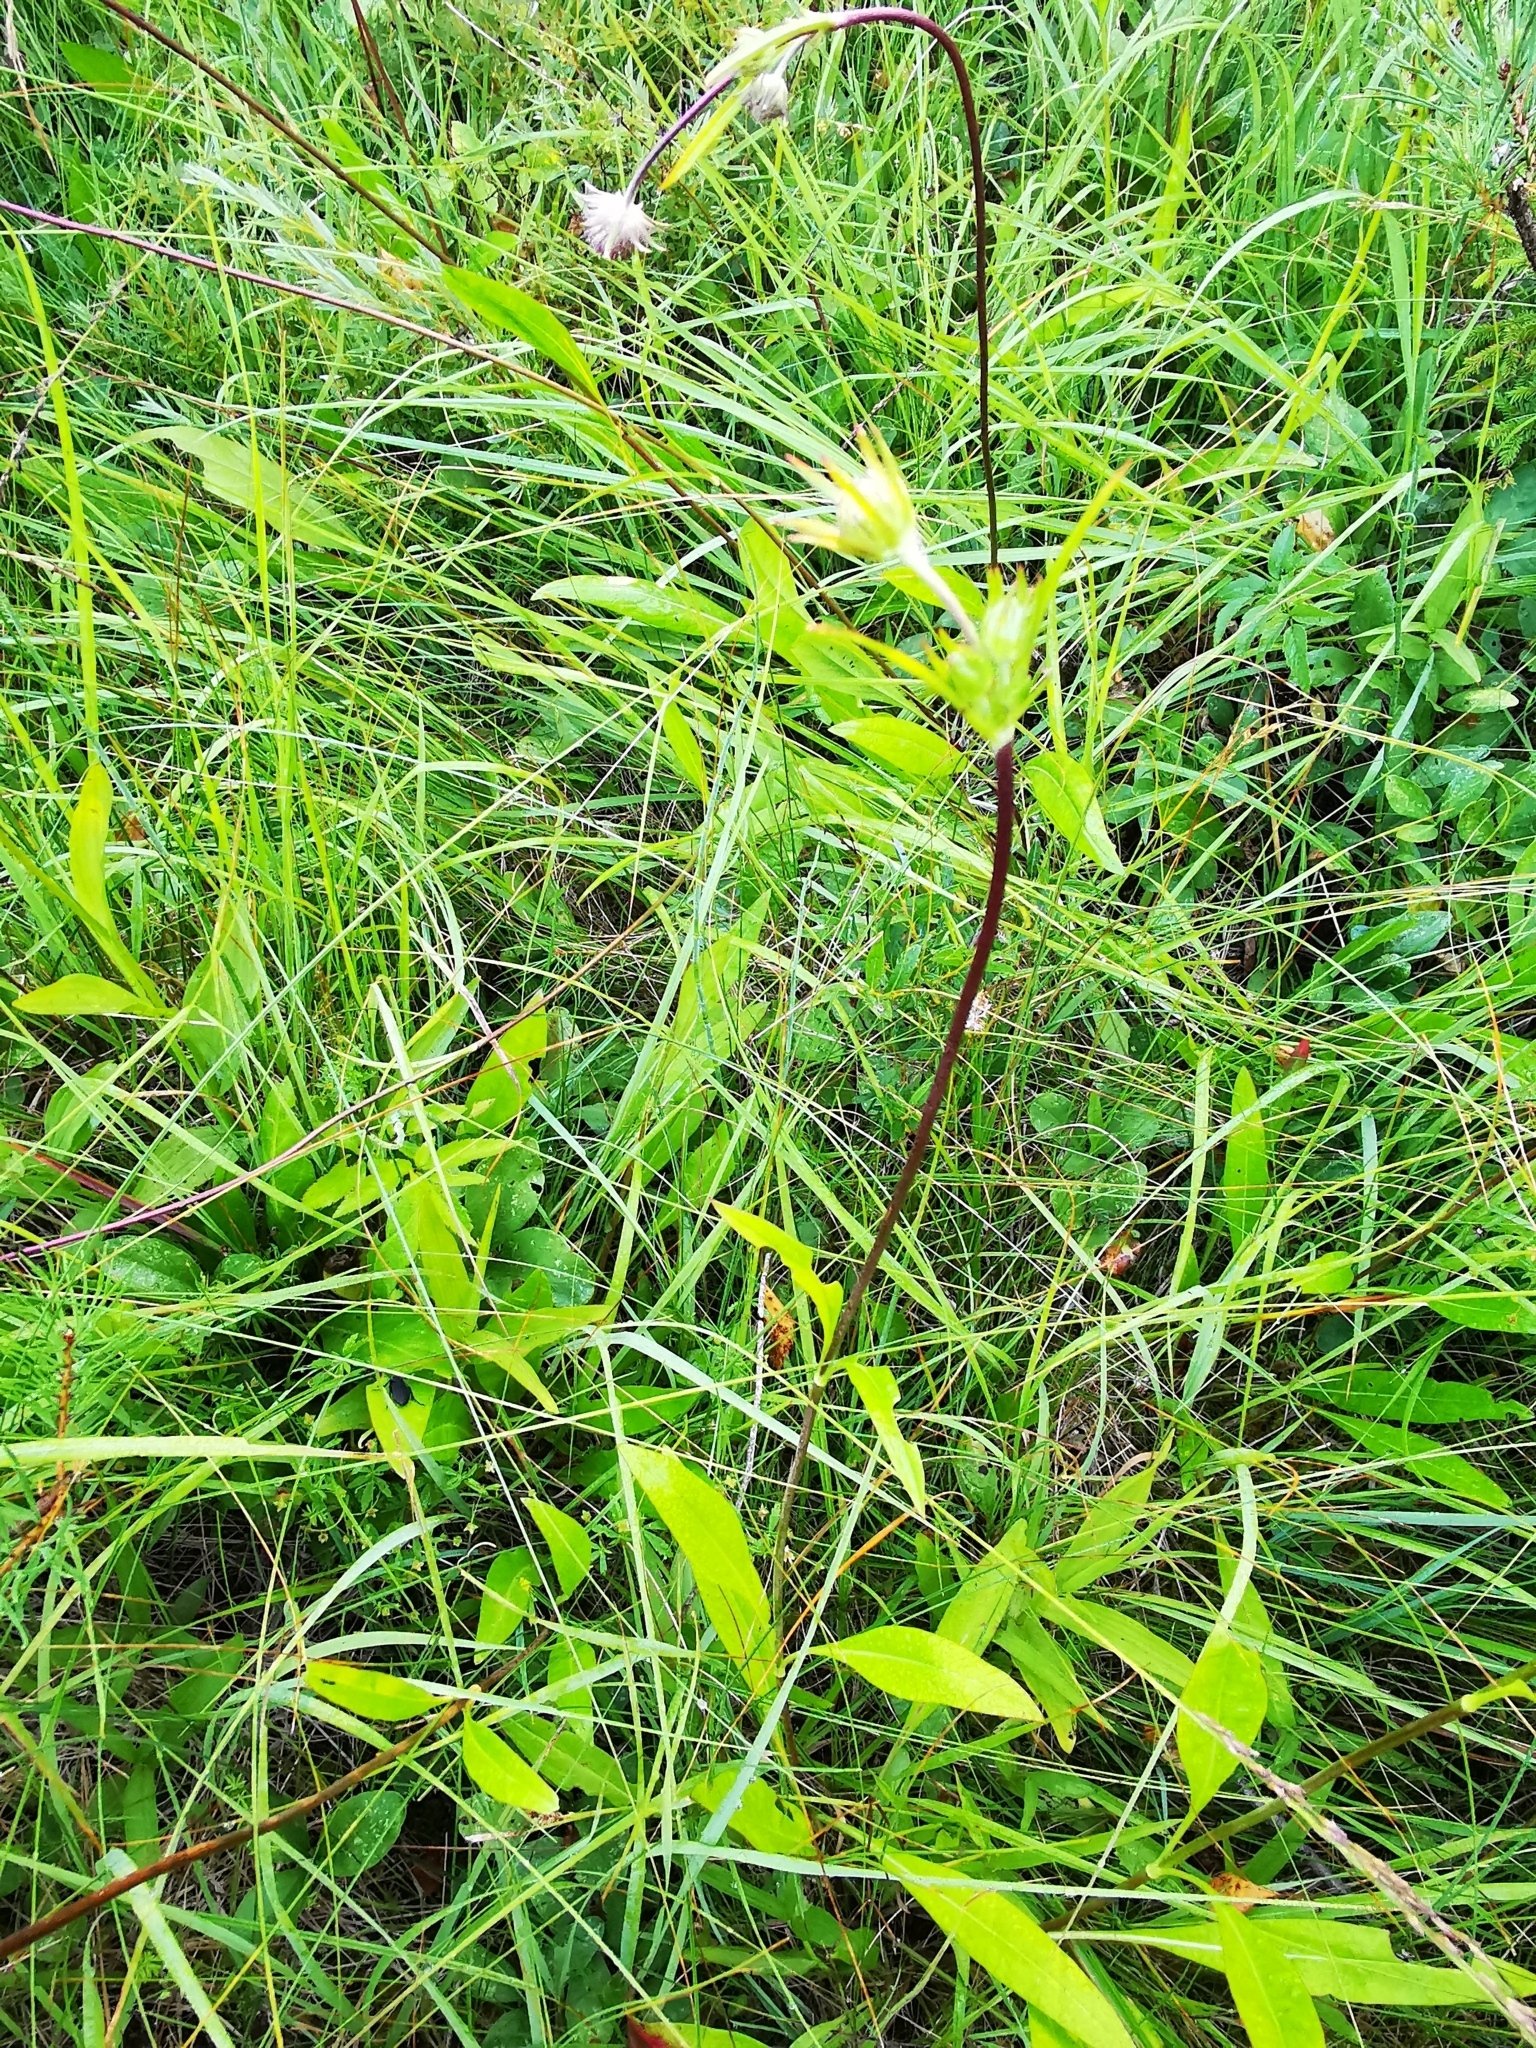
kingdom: Plantae
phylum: Tracheophyta
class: Magnoliopsida
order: Dipsacales
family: Caprifoliaceae
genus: Succisa
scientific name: Succisa pratensis
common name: Devil's-bit
